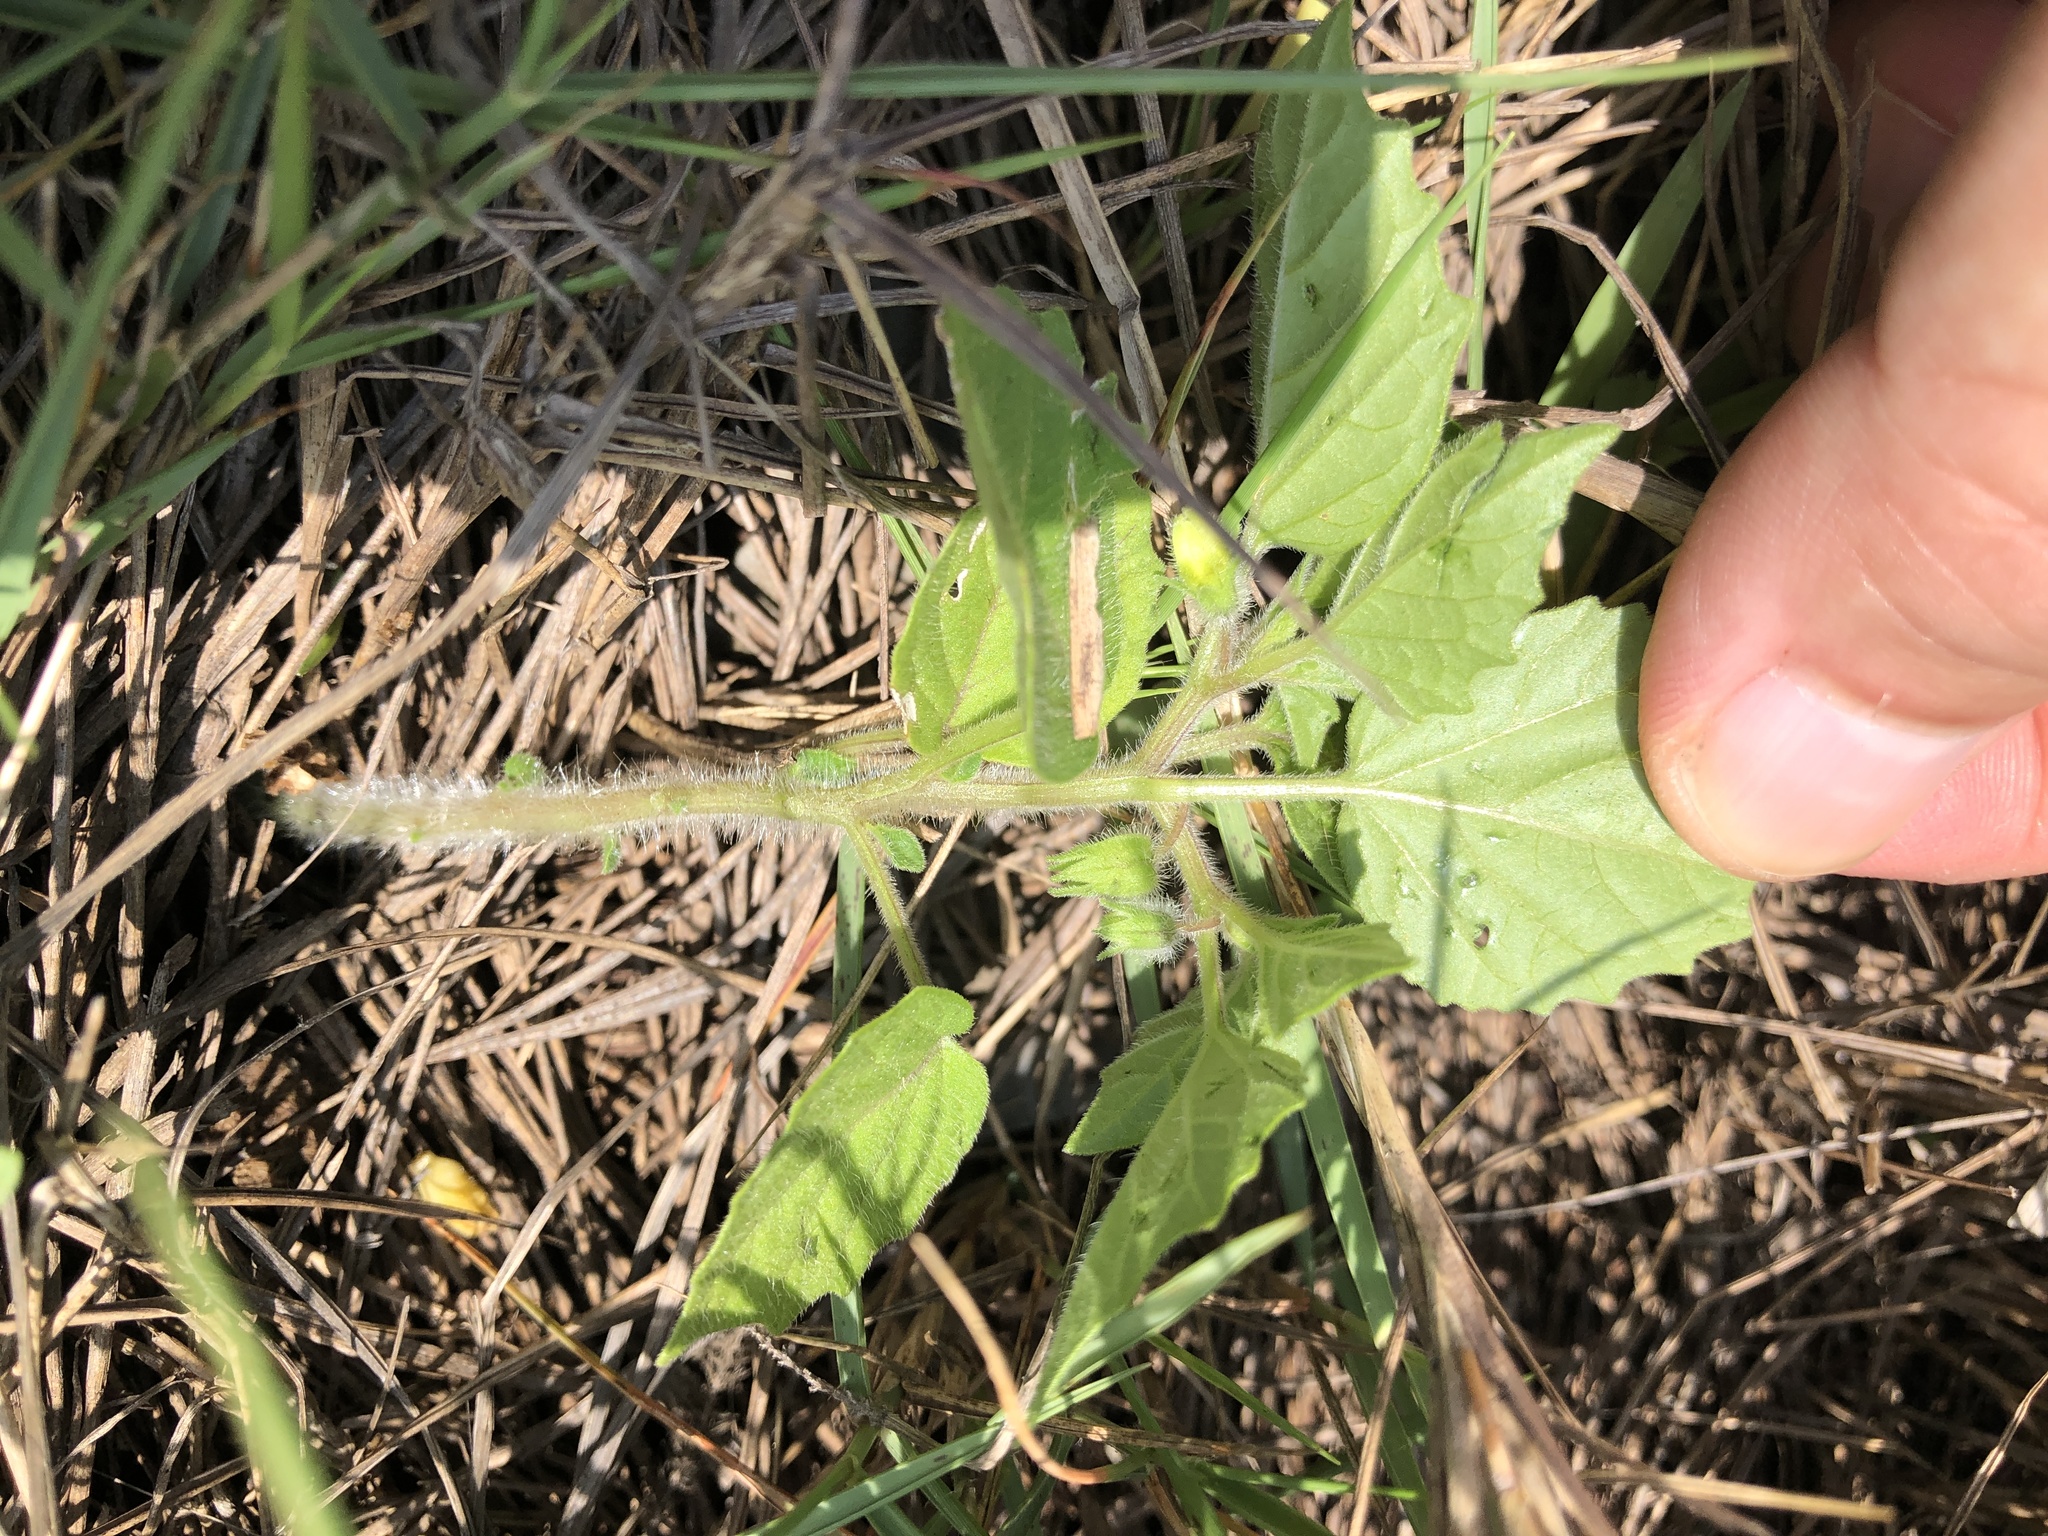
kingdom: Plantae
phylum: Tracheophyta
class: Magnoliopsida
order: Solanales
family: Solanaceae
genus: Physalis
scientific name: Physalis pubescens
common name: Downy ground-cherry
